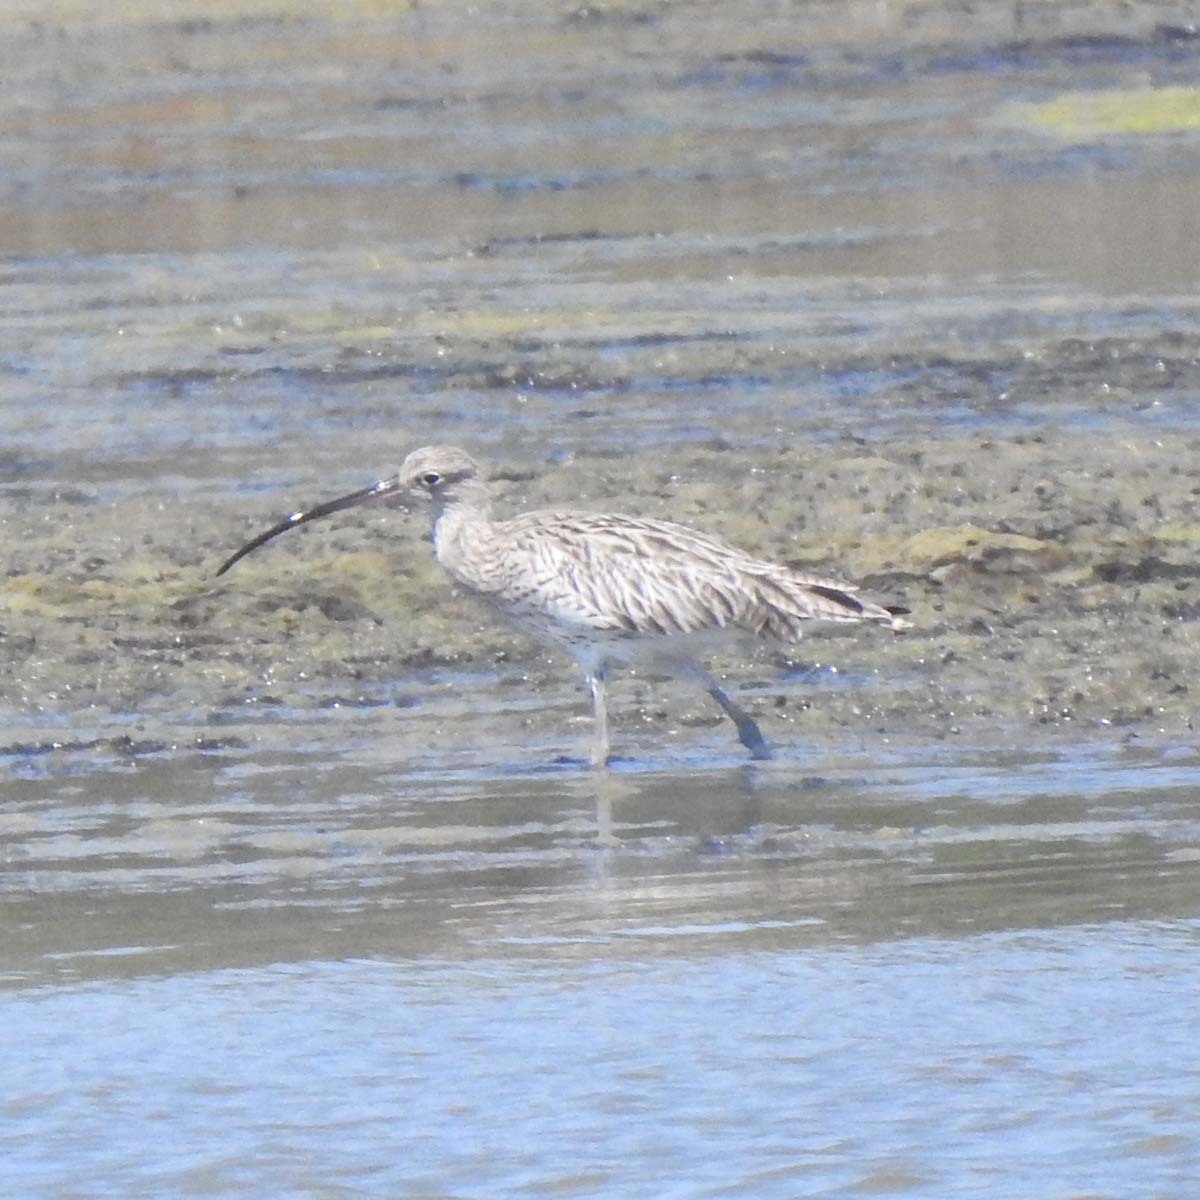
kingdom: Animalia
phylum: Chordata
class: Aves
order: Charadriiformes
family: Scolopacidae
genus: Numenius
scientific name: Numenius arquata
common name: Eurasian curlew
